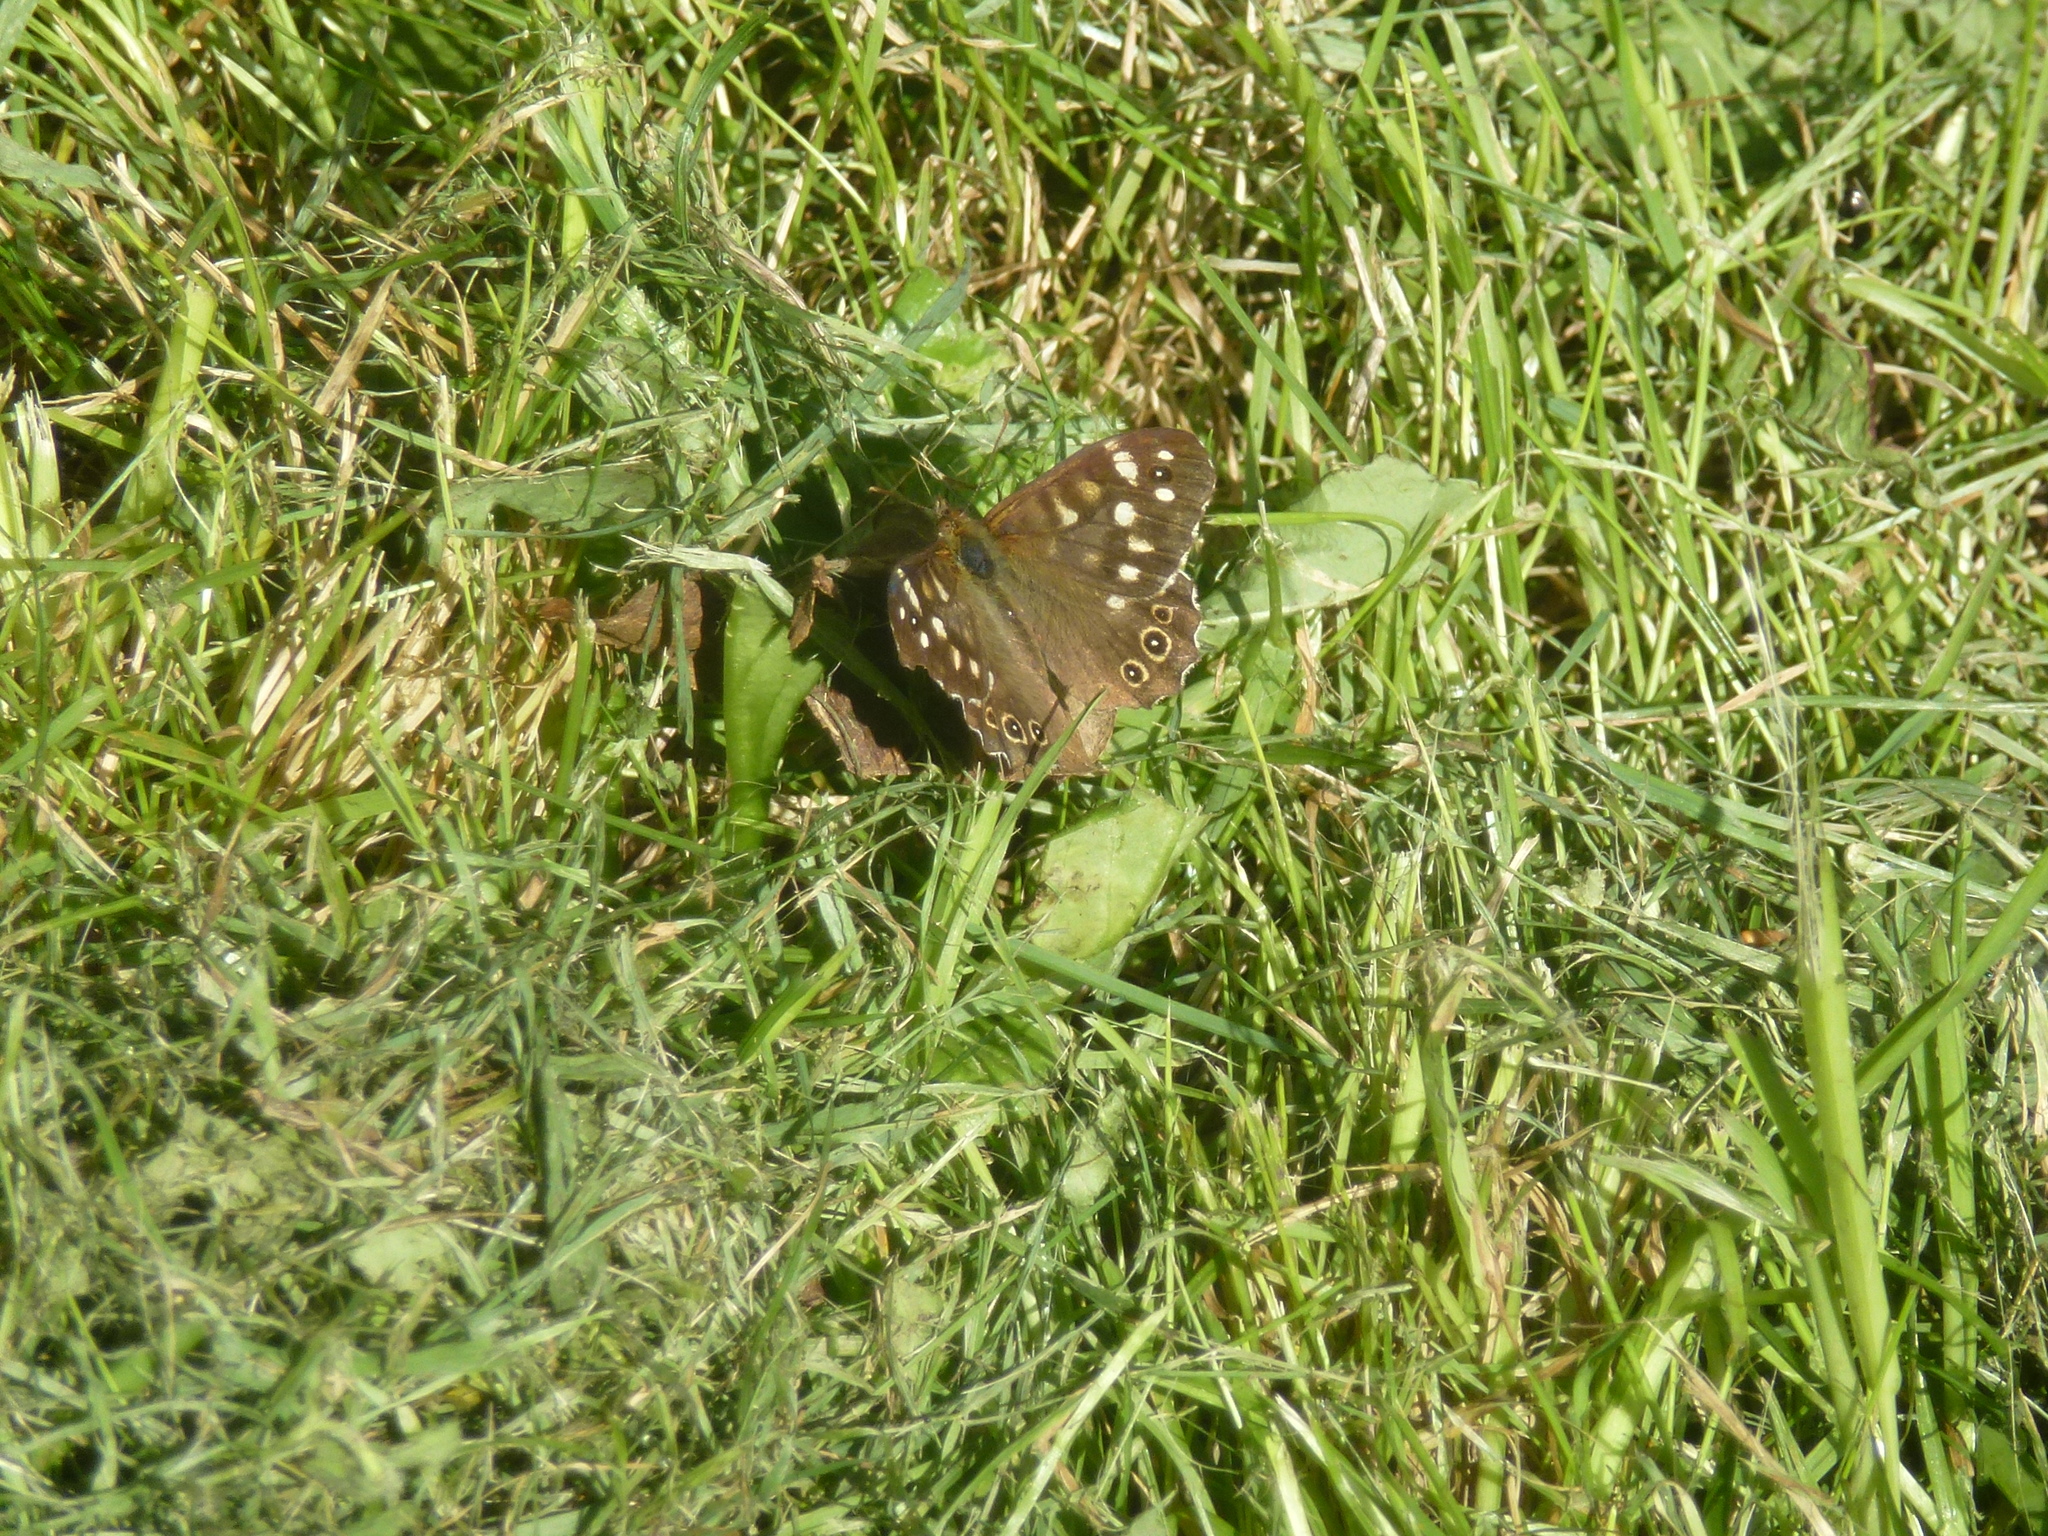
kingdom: Animalia
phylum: Arthropoda
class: Insecta
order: Lepidoptera
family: Nymphalidae
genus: Pararge
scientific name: Pararge aegeria
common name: Speckled wood
